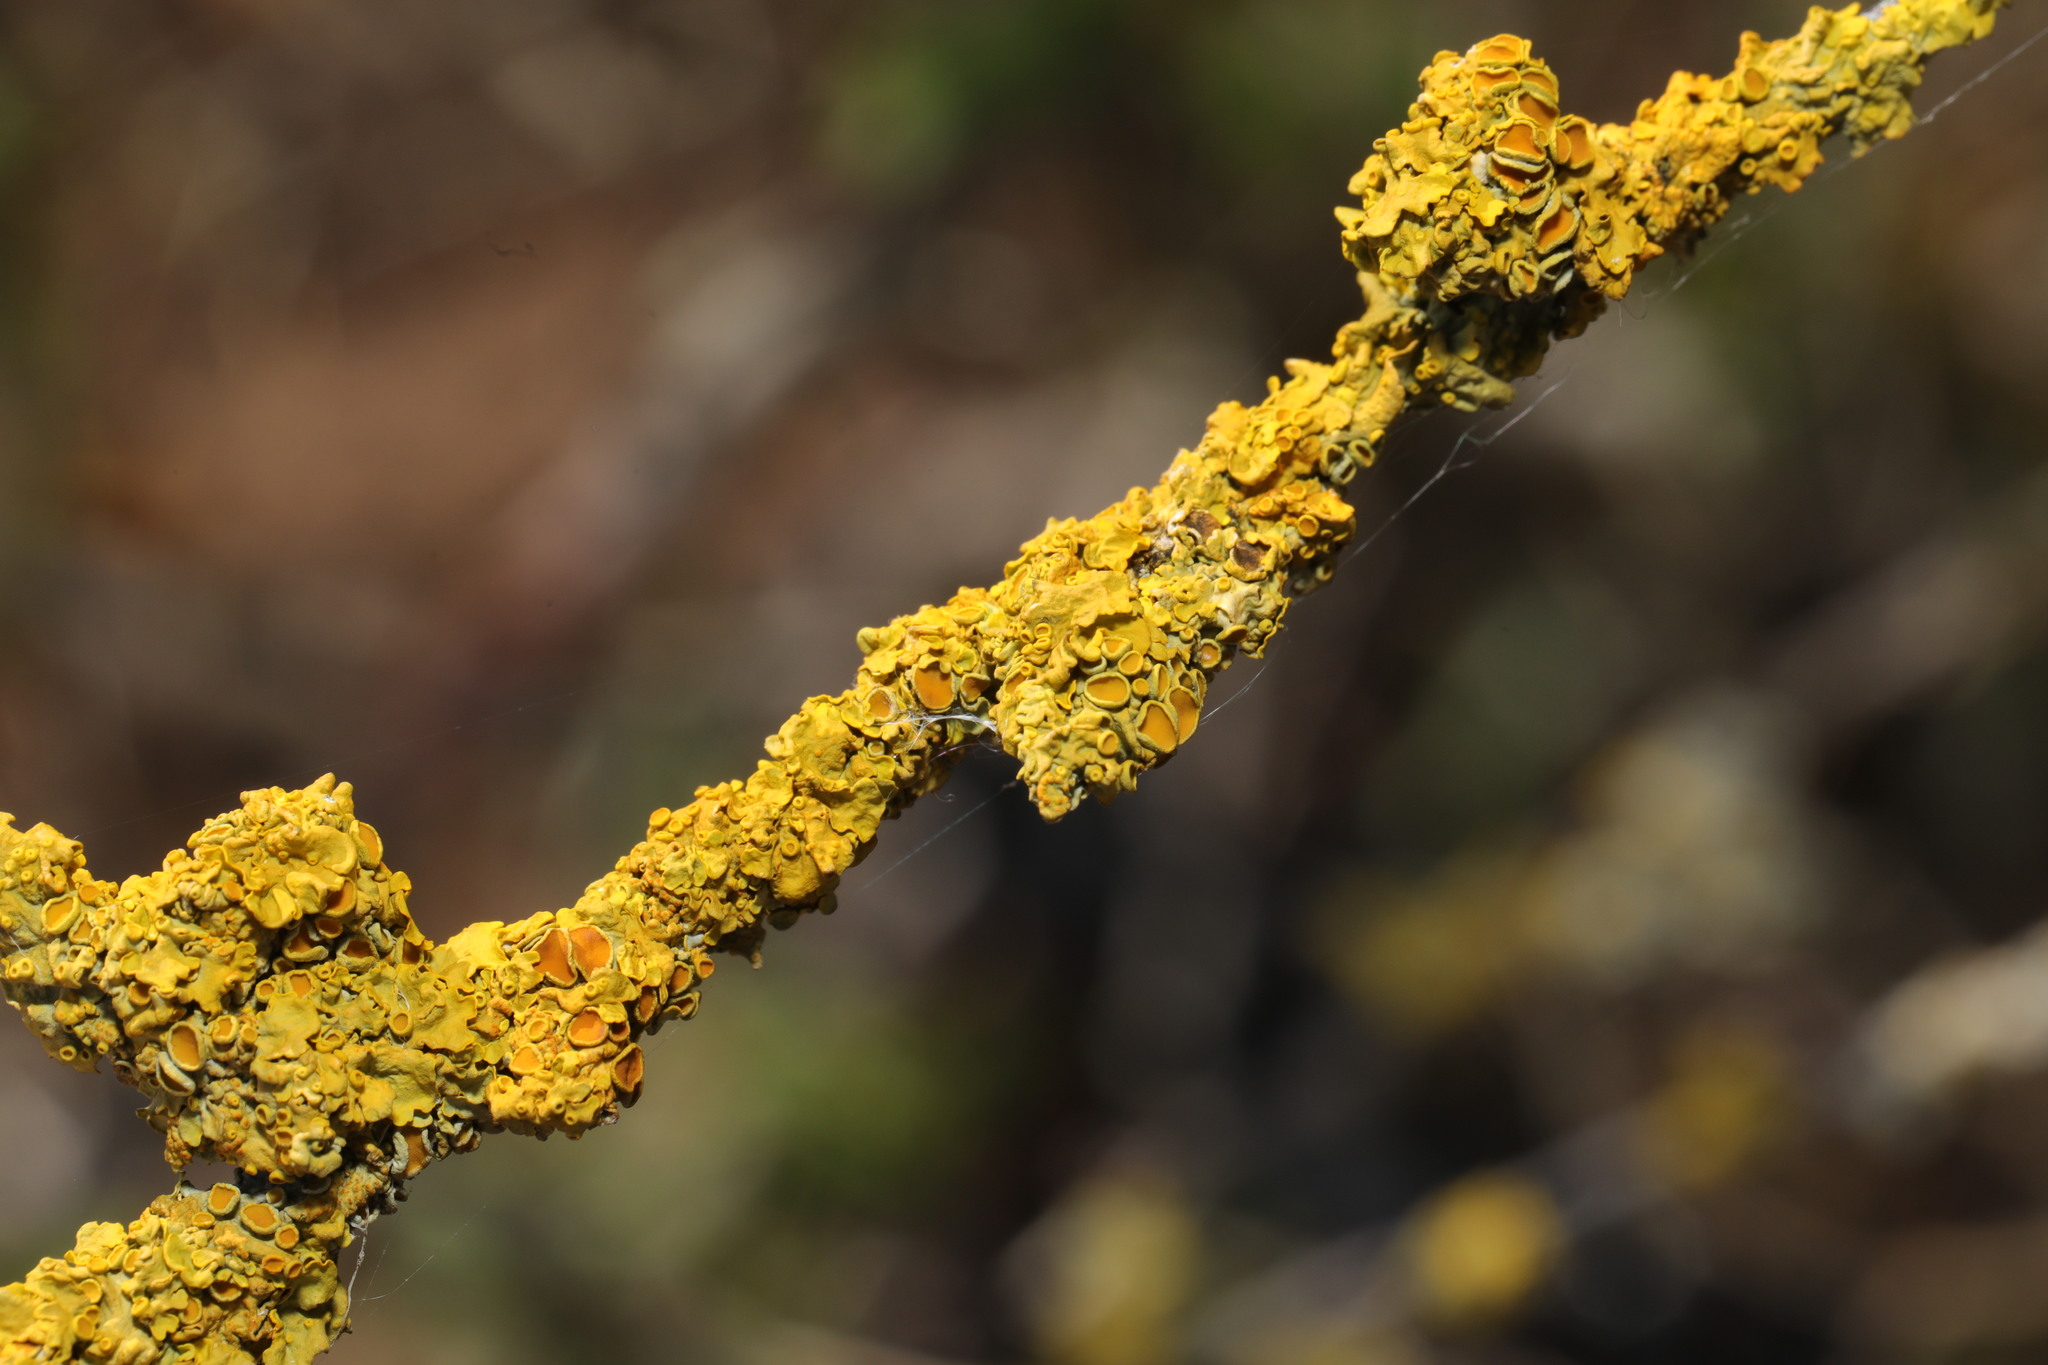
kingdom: Fungi
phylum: Ascomycota
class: Lecanoromycetes
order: Teloschistales
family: Teloschistaceae
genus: Xanthoria
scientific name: Xanthoria parietina
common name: Common orange lichen
